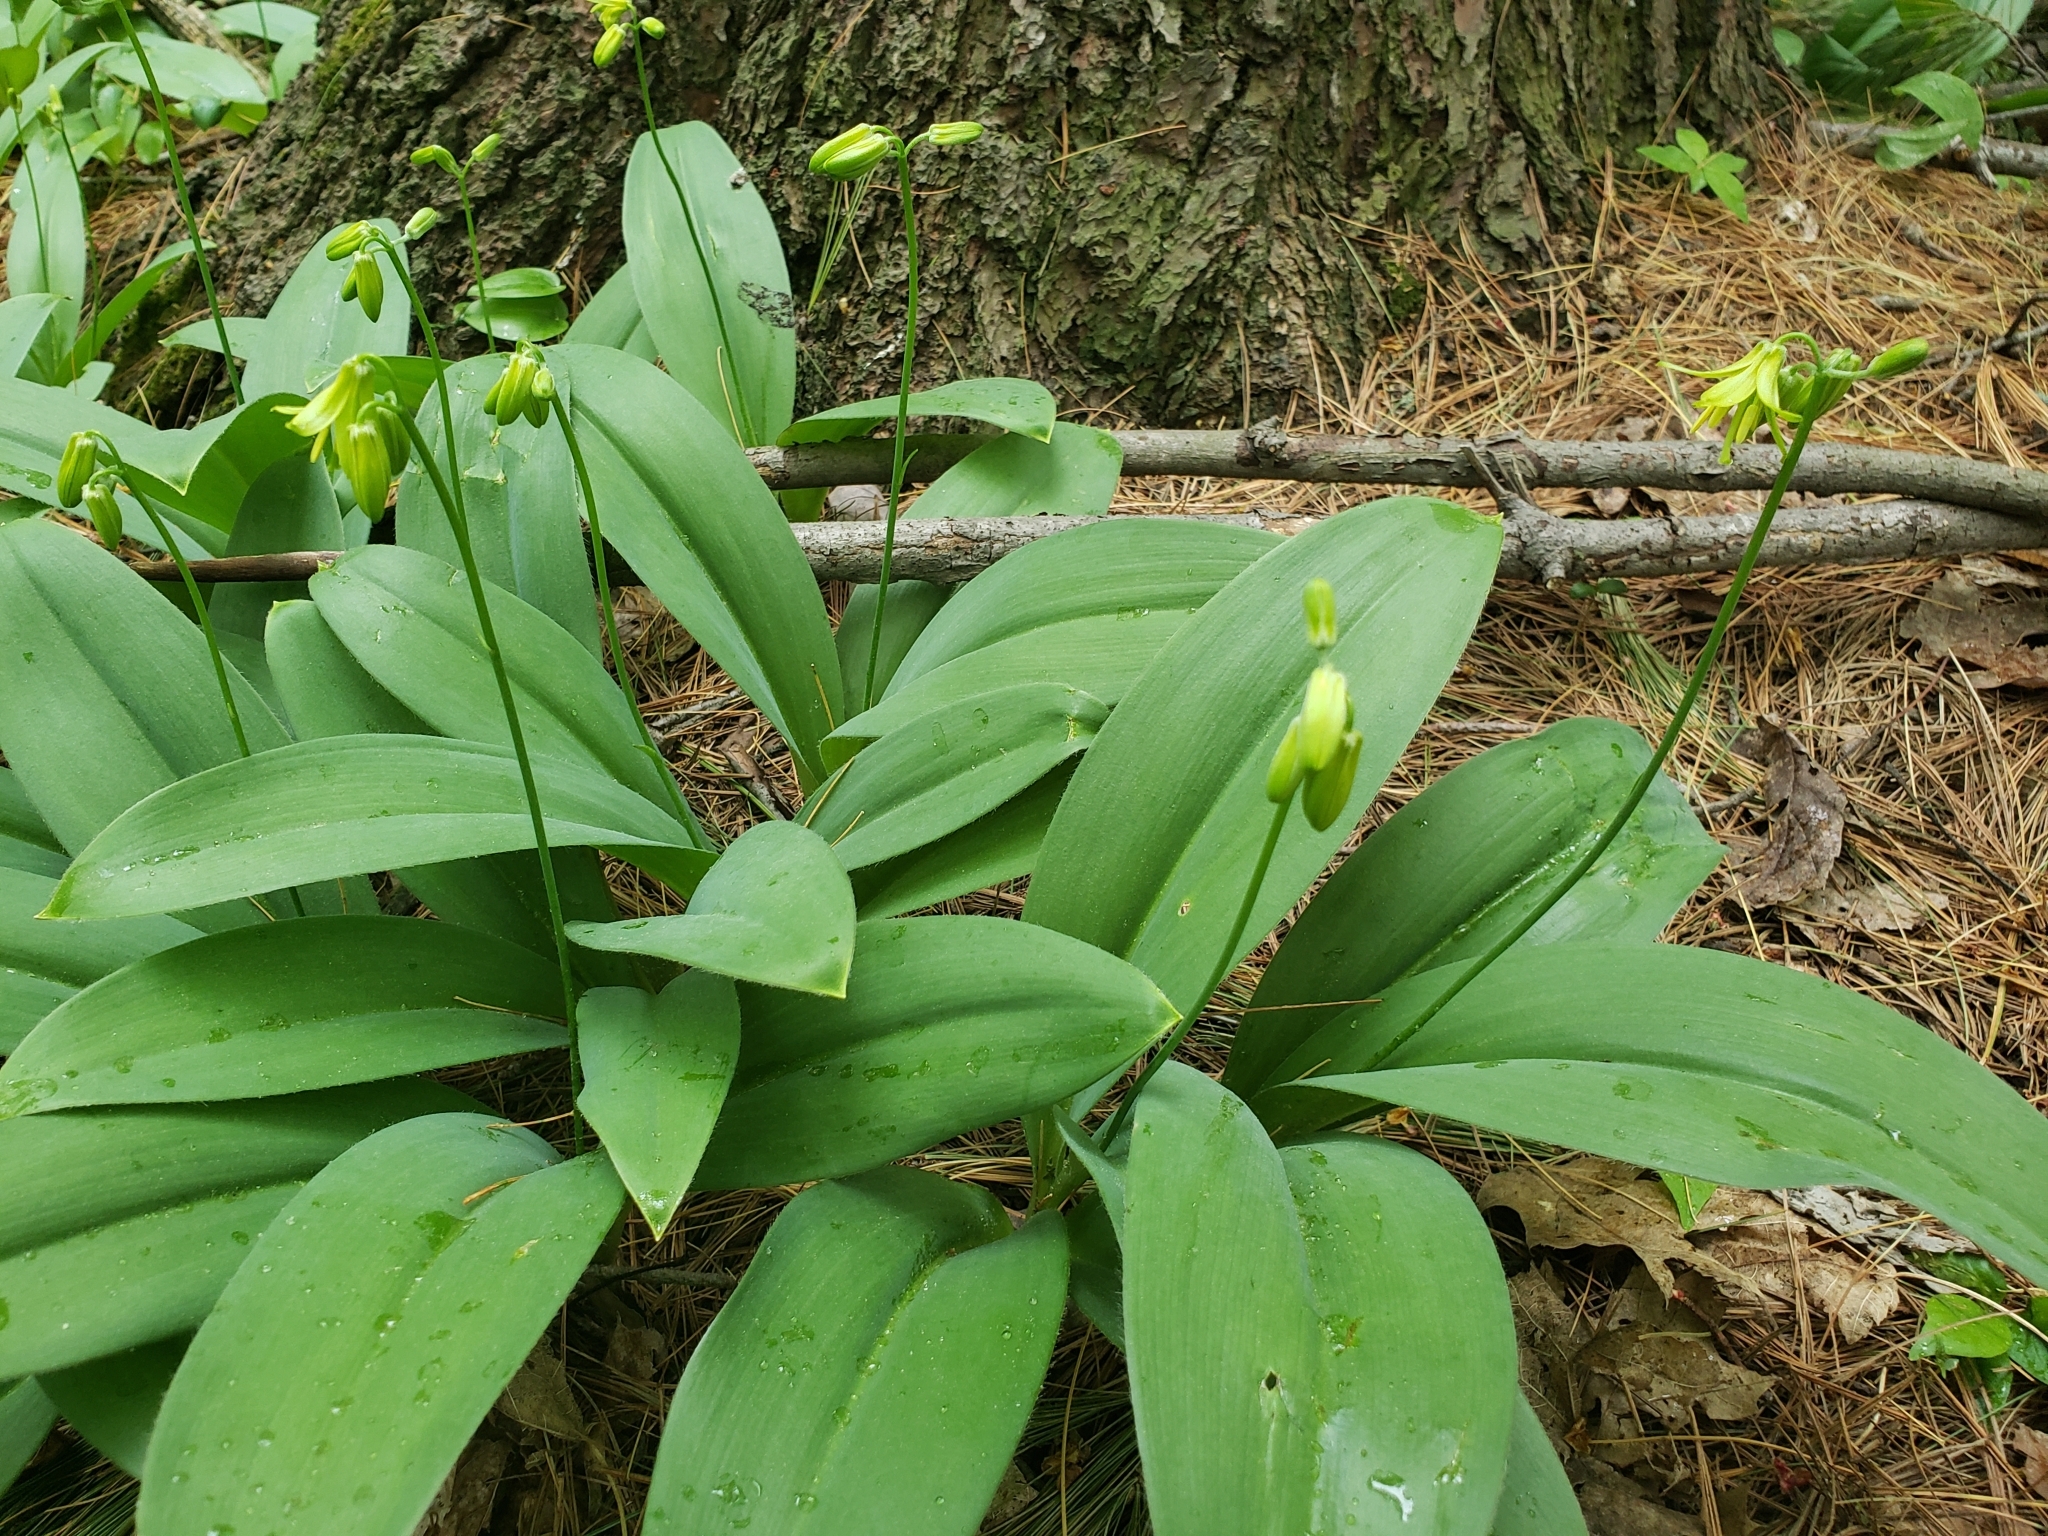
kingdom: Plantae
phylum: Tracheophyta
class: Liliopsida
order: Liliales
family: Liliaceae
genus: Clintonia
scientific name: Clintonia borealis
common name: Yellow clintonia
